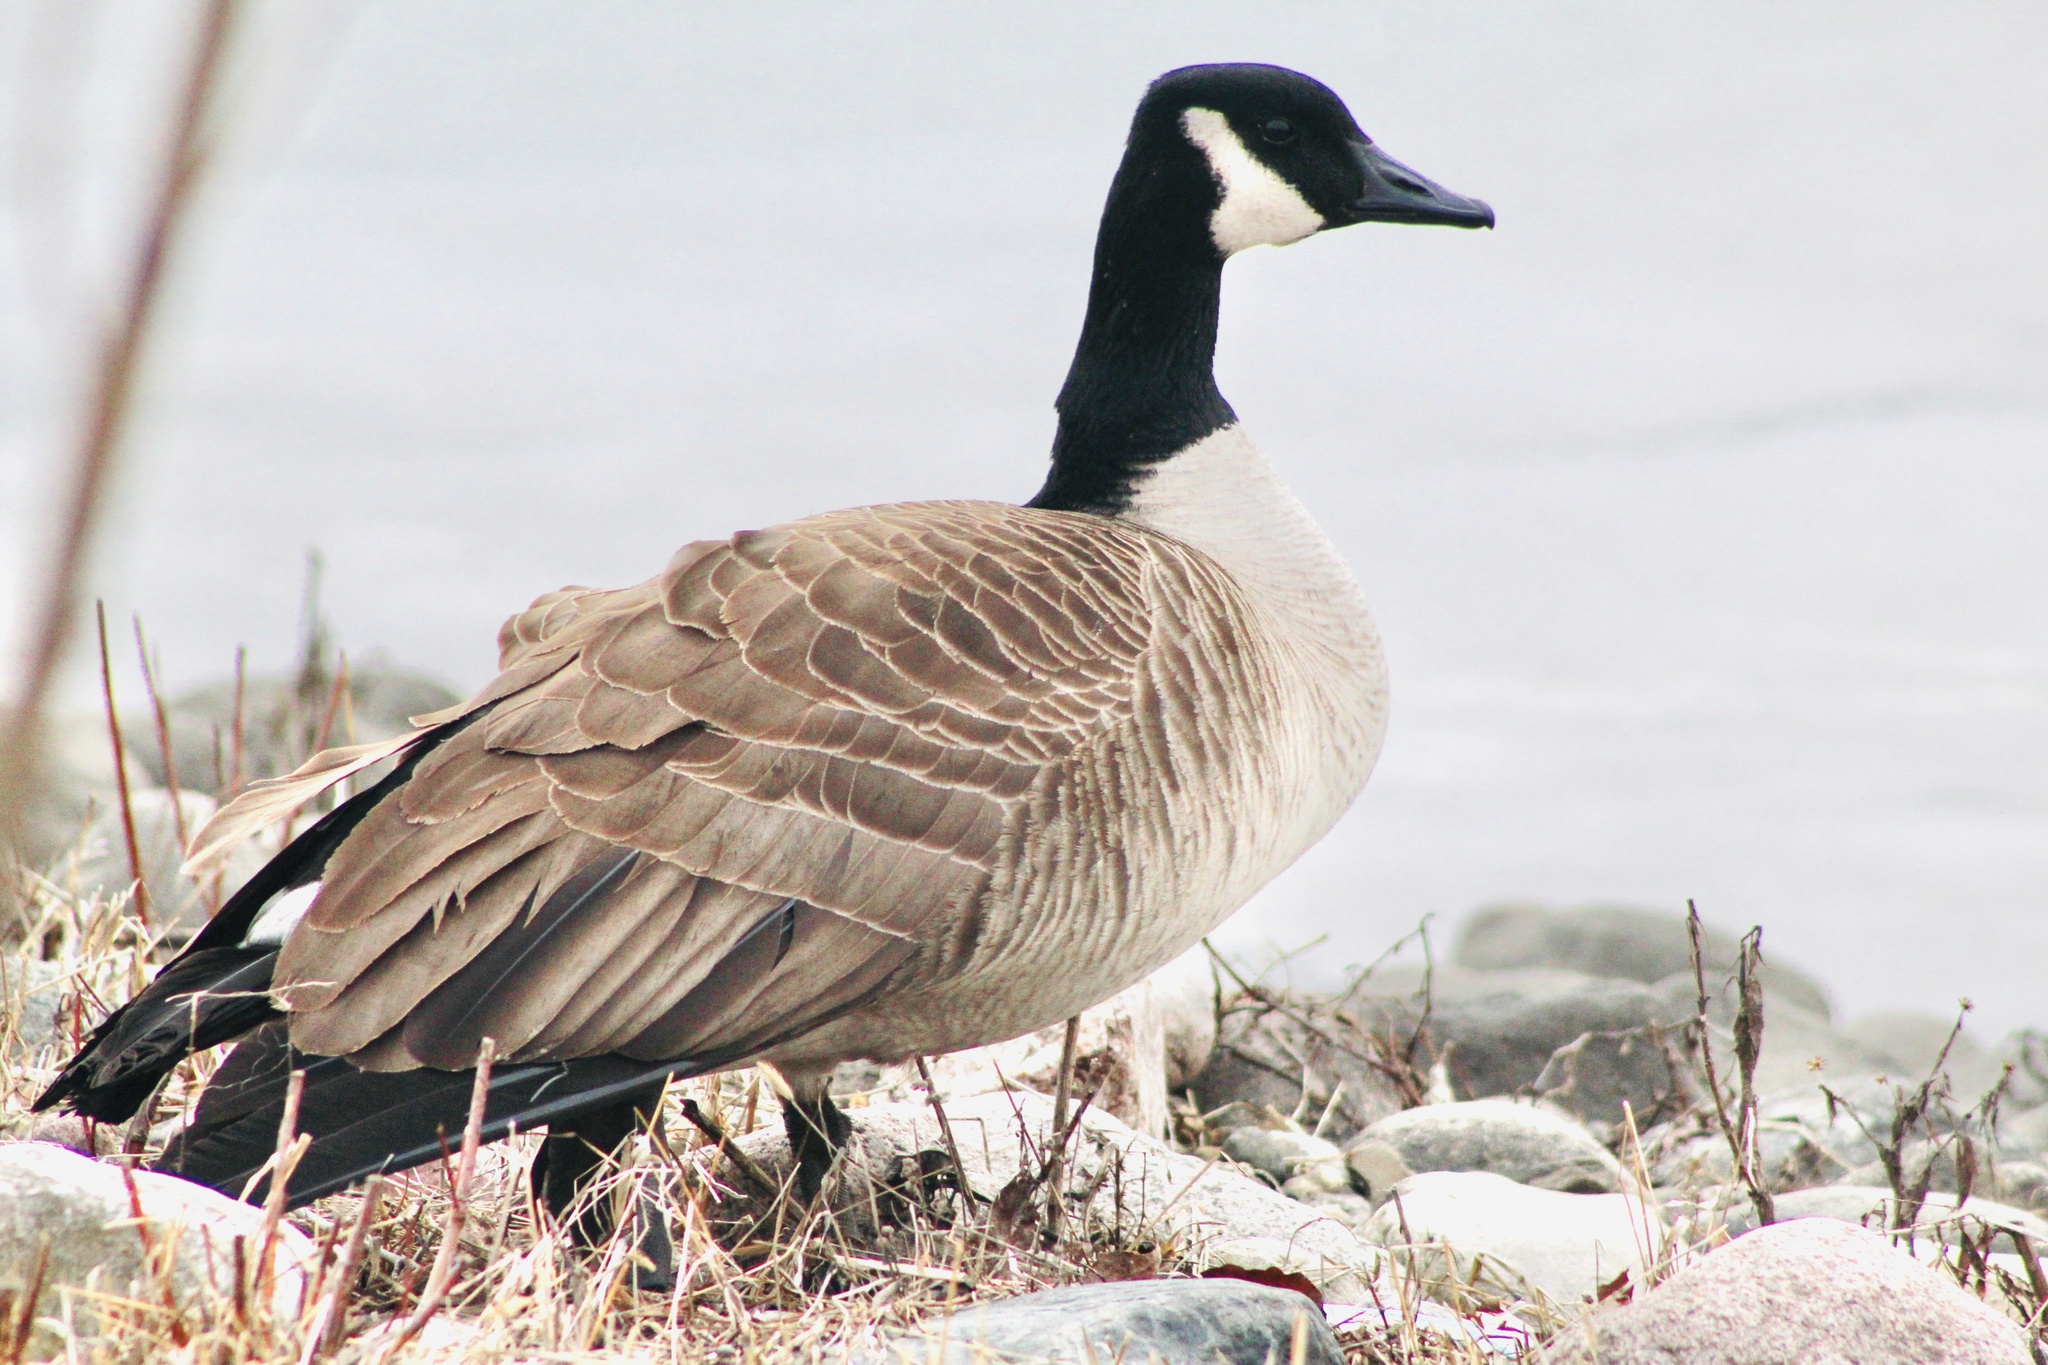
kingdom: Animalia
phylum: Chordata
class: Aves
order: Anseriformes
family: Anatidae
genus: Branta
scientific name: Branta canadensis
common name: Canada goose
